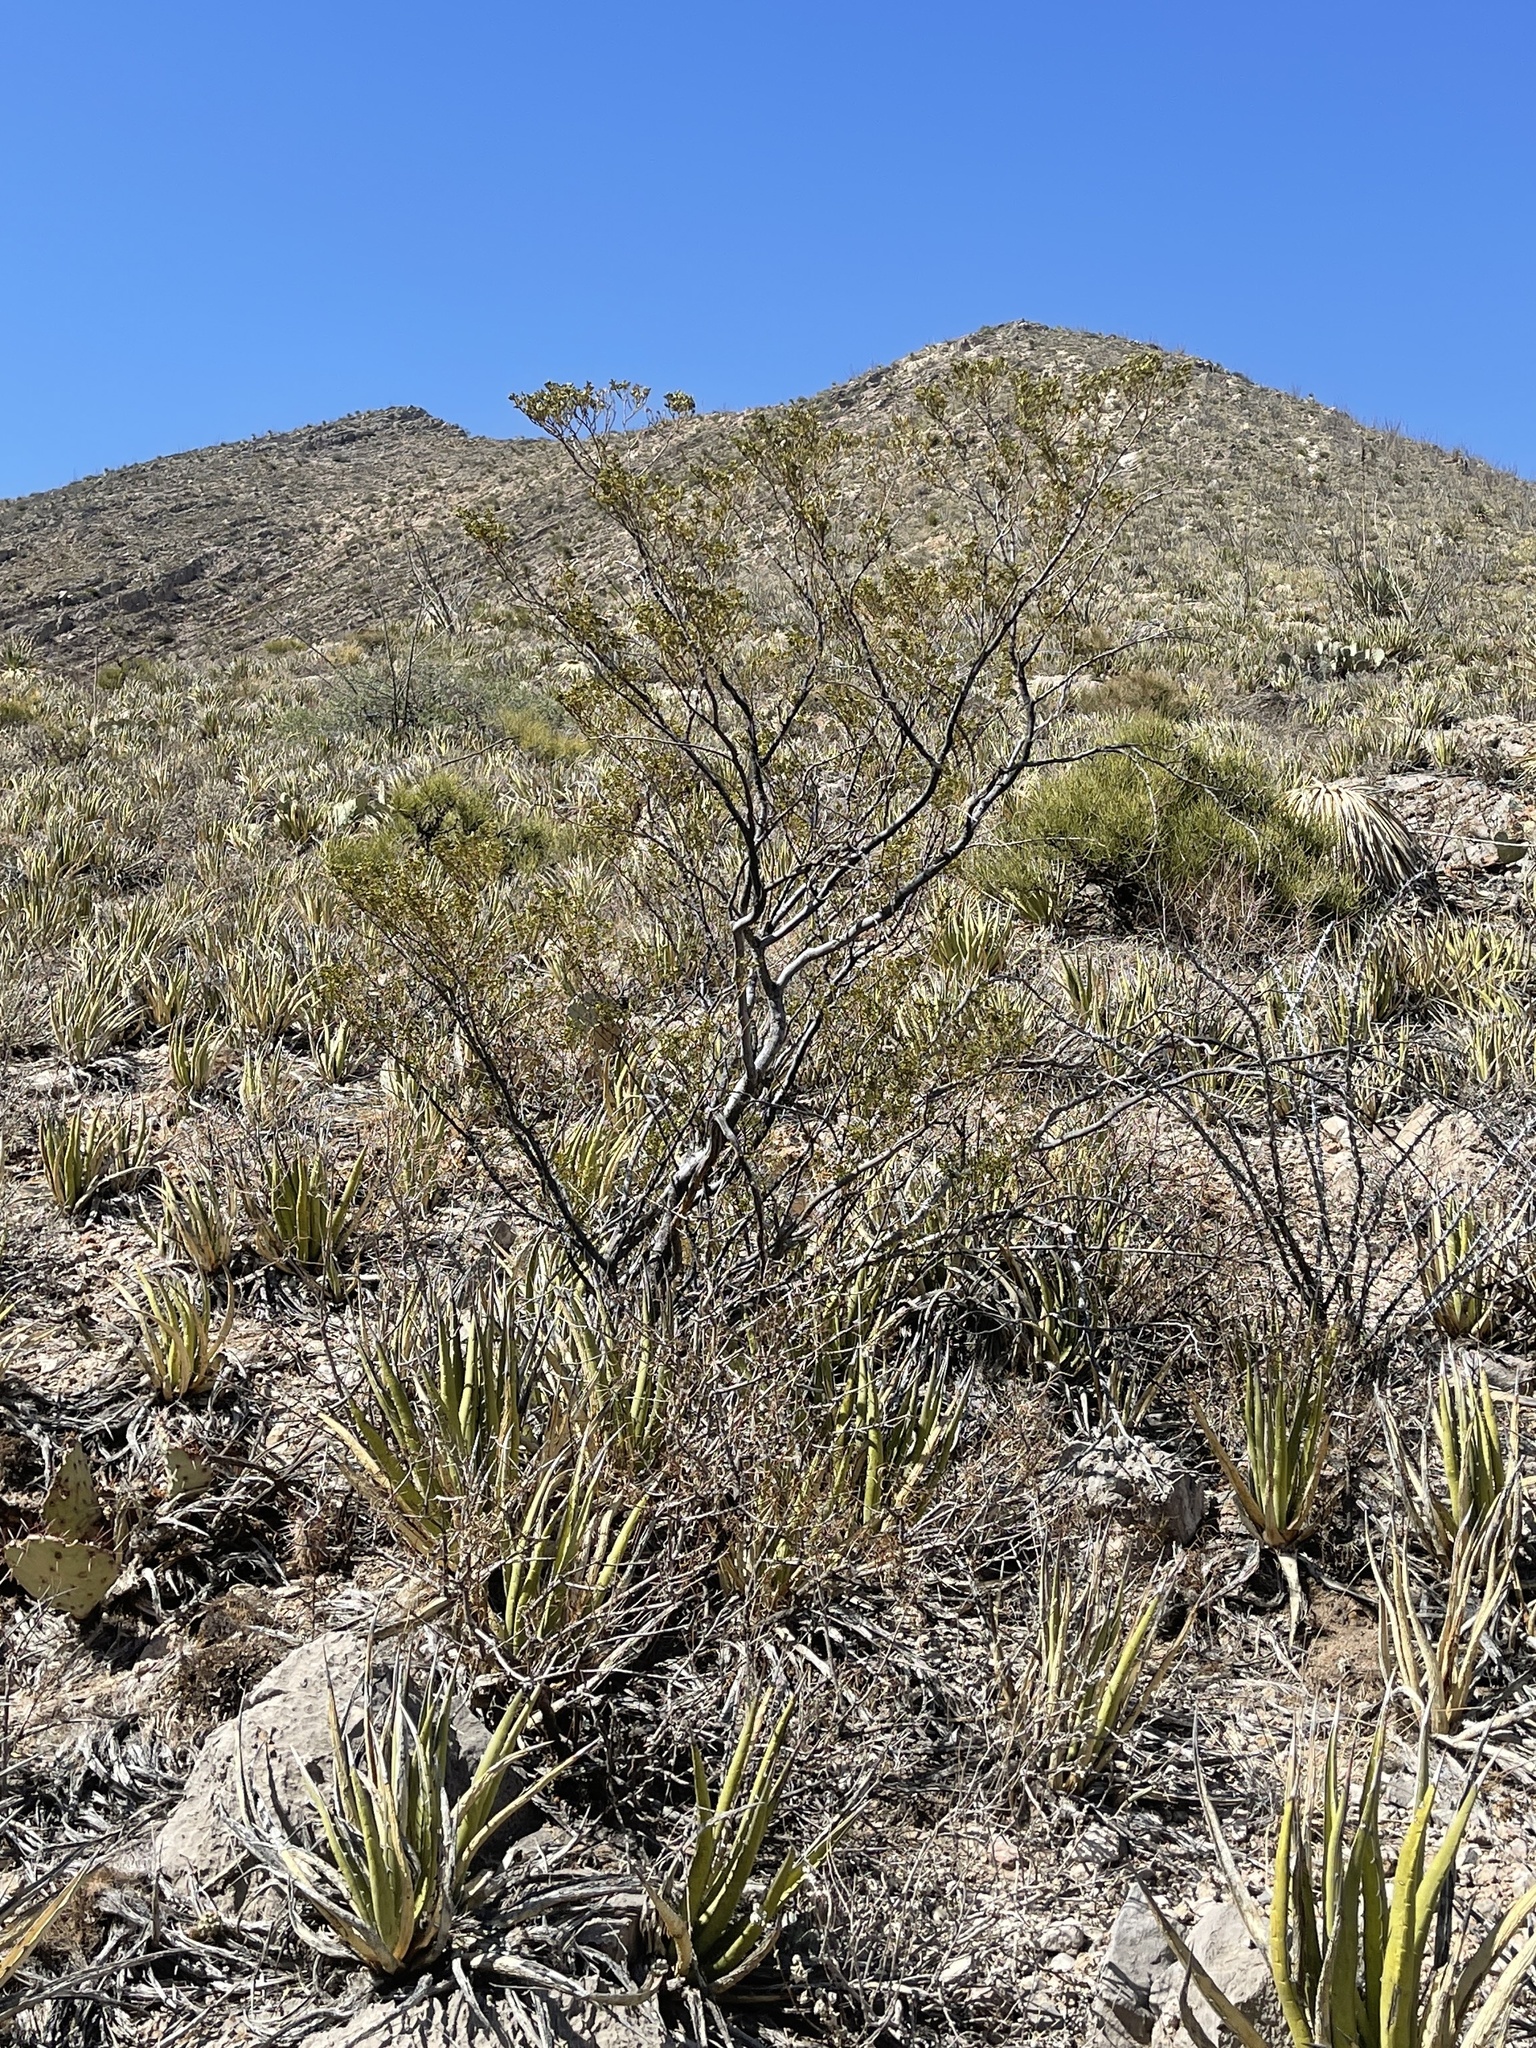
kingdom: Plantae
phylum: Tracheophyta
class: Magnoliopsida
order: Zygophyllales
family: Zygophyllaceae
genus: Larrea
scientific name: Larrea tridentata
